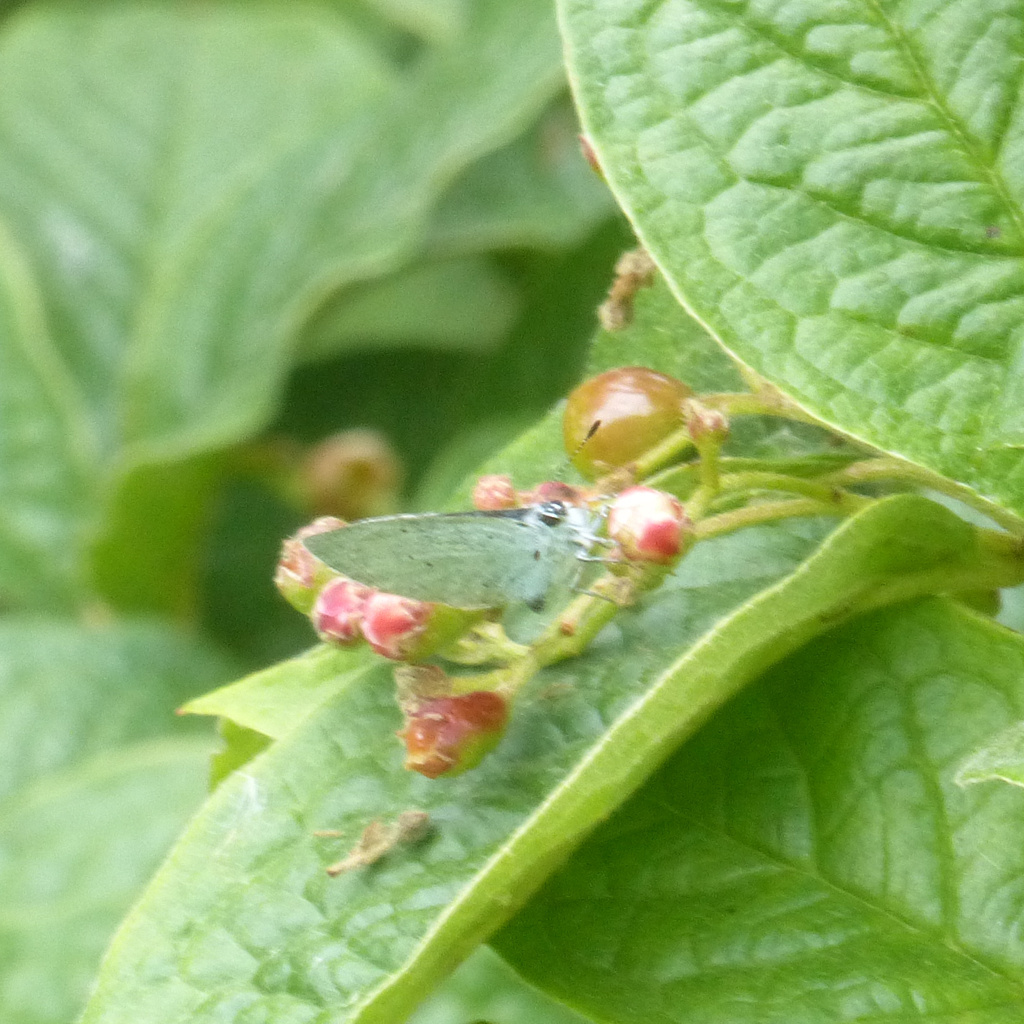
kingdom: Animalia
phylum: Arthropoda
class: Insecta
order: Lepidoptera
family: Lycaenidae
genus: Celastrina
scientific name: Celastrina argiolus
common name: Holly blue
